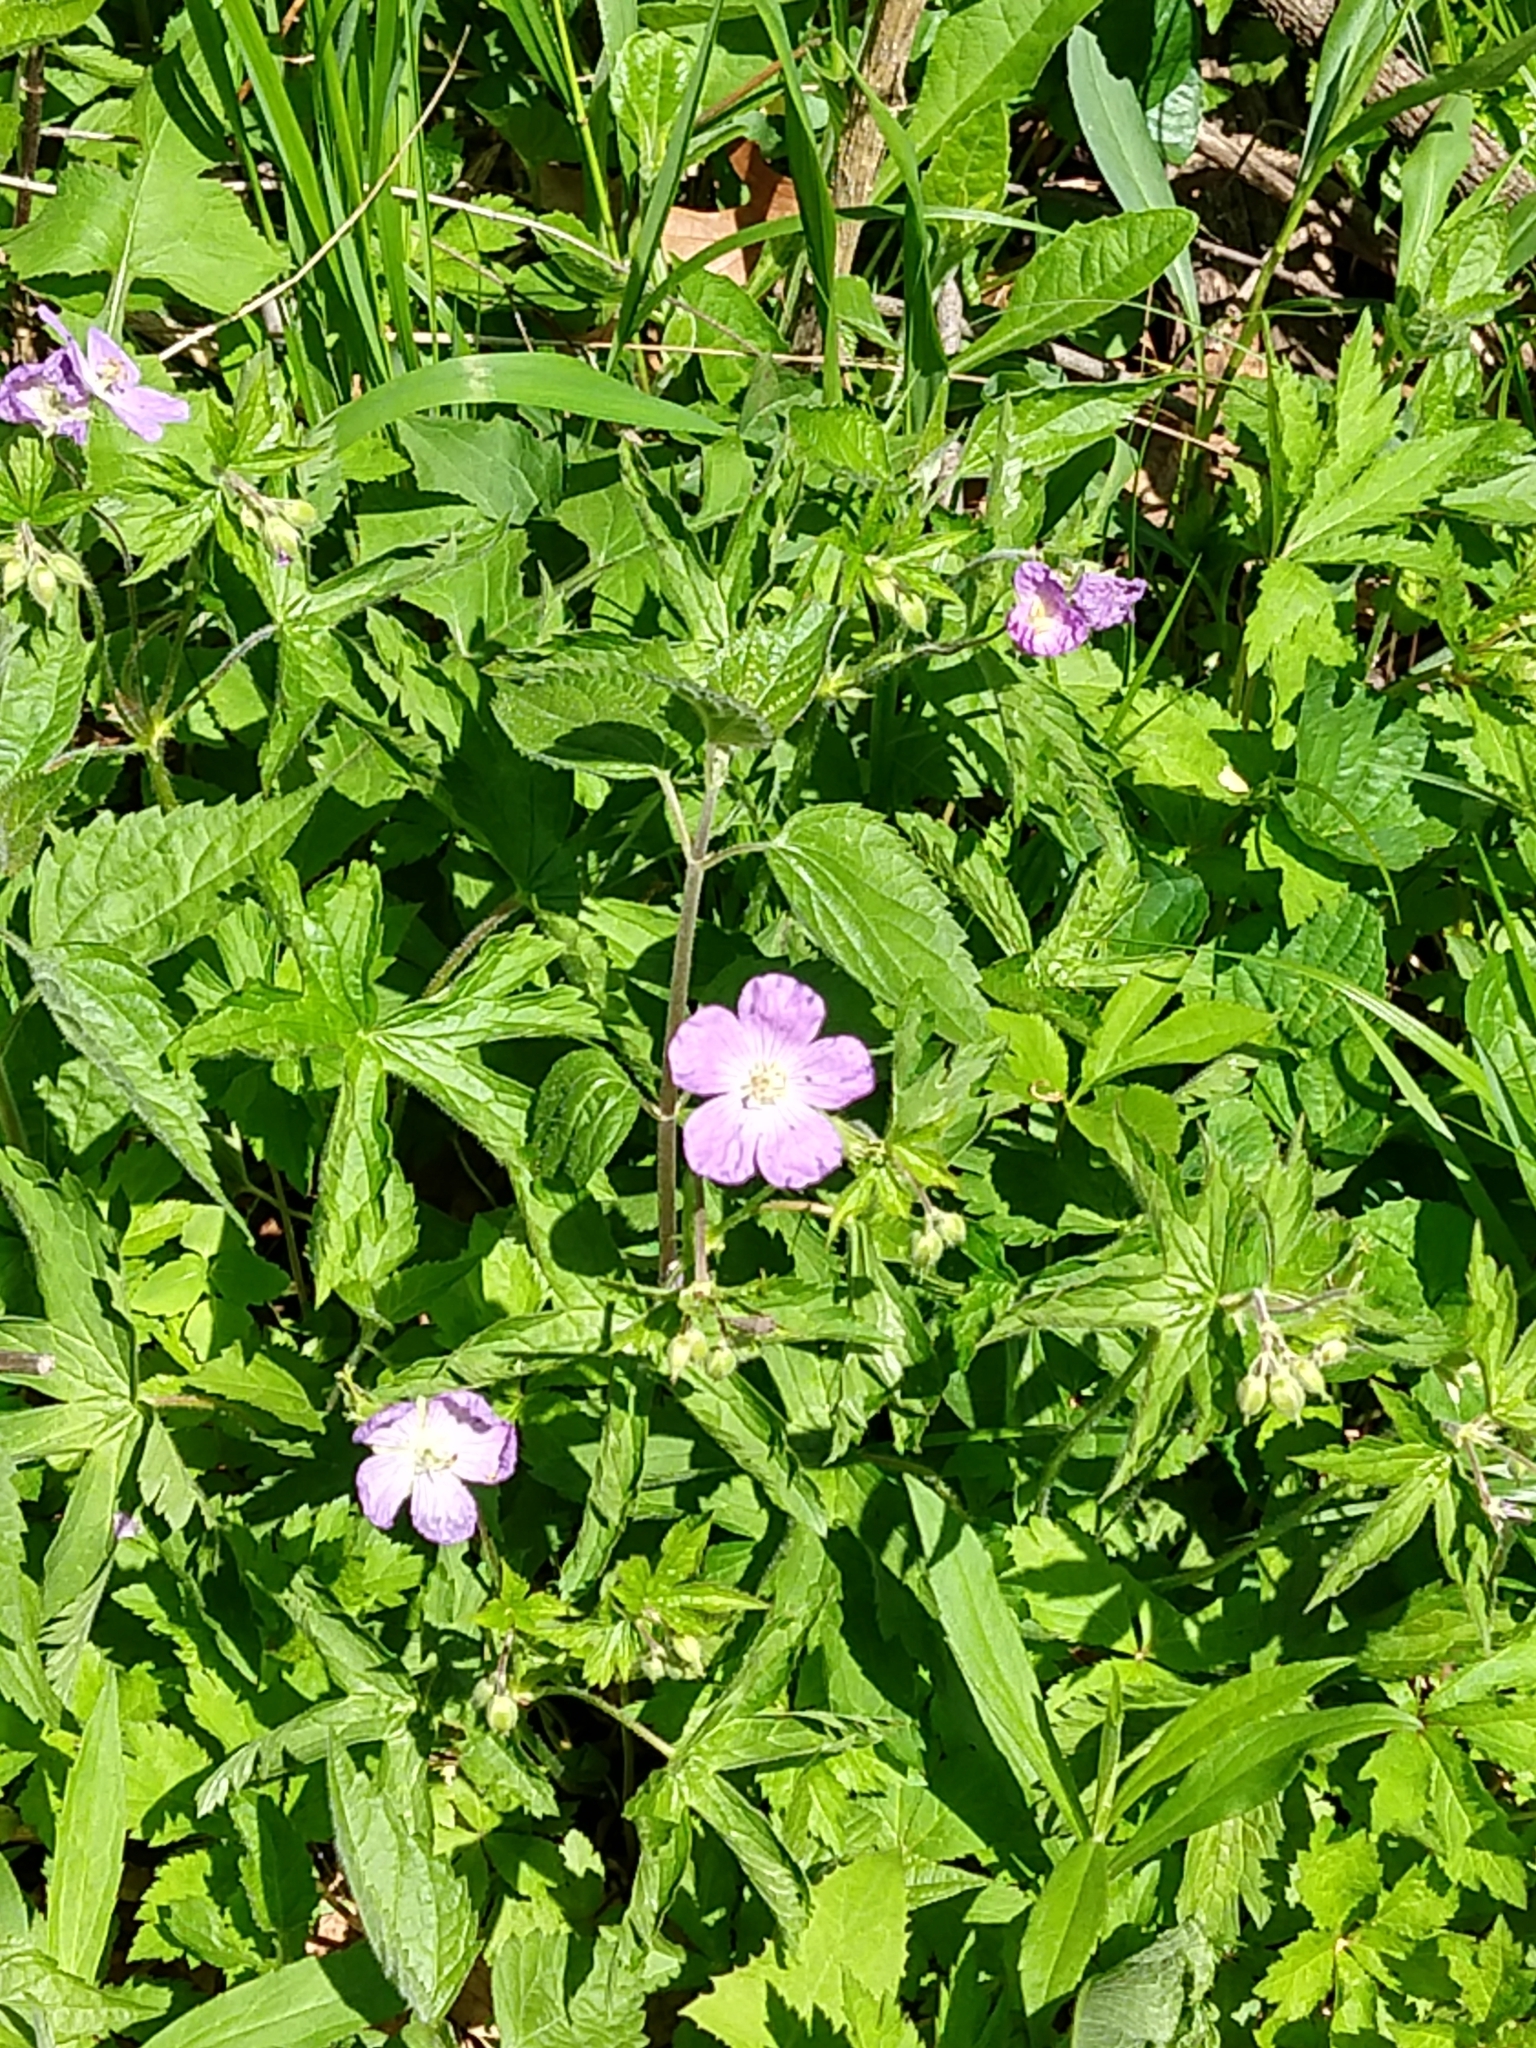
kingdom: Plantae
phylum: Tracheophyta
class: Magnoliopsida
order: Geraniales
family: Geraniaceae
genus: Geranium
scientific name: Geranium maculatum
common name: Spotted geranium
